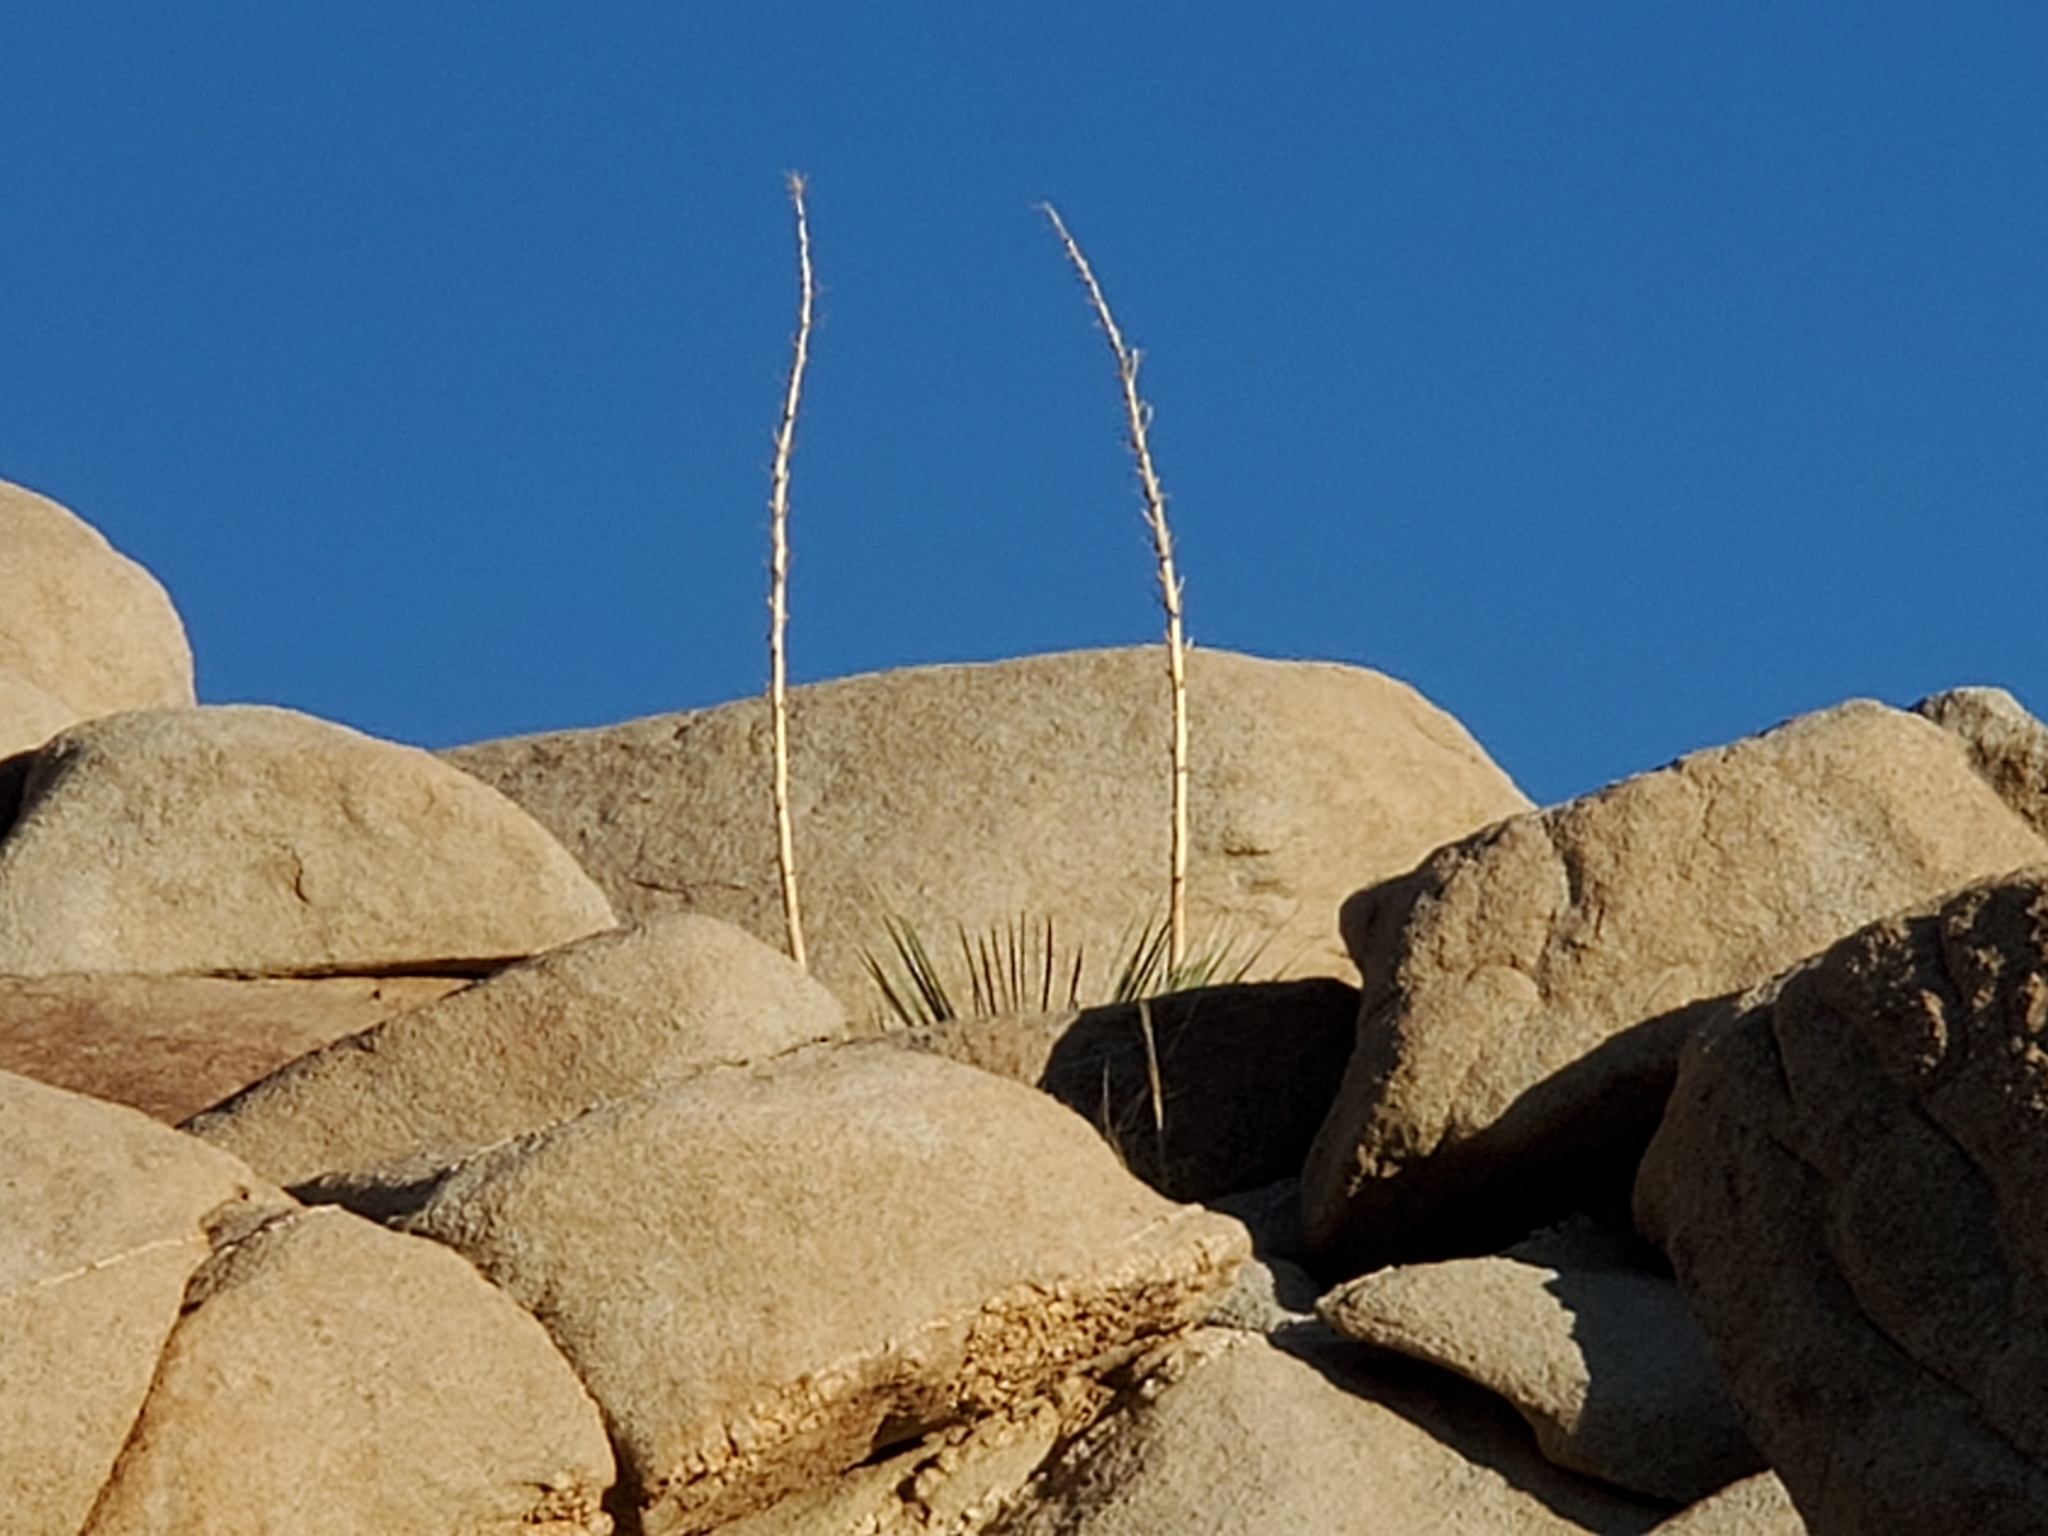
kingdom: Plantae
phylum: Tracheophyta
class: Liliopsida
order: Asparagales
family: Asparagaceae
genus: Nolina
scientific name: Nolina bigelovii
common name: Bigelow bear-grass
